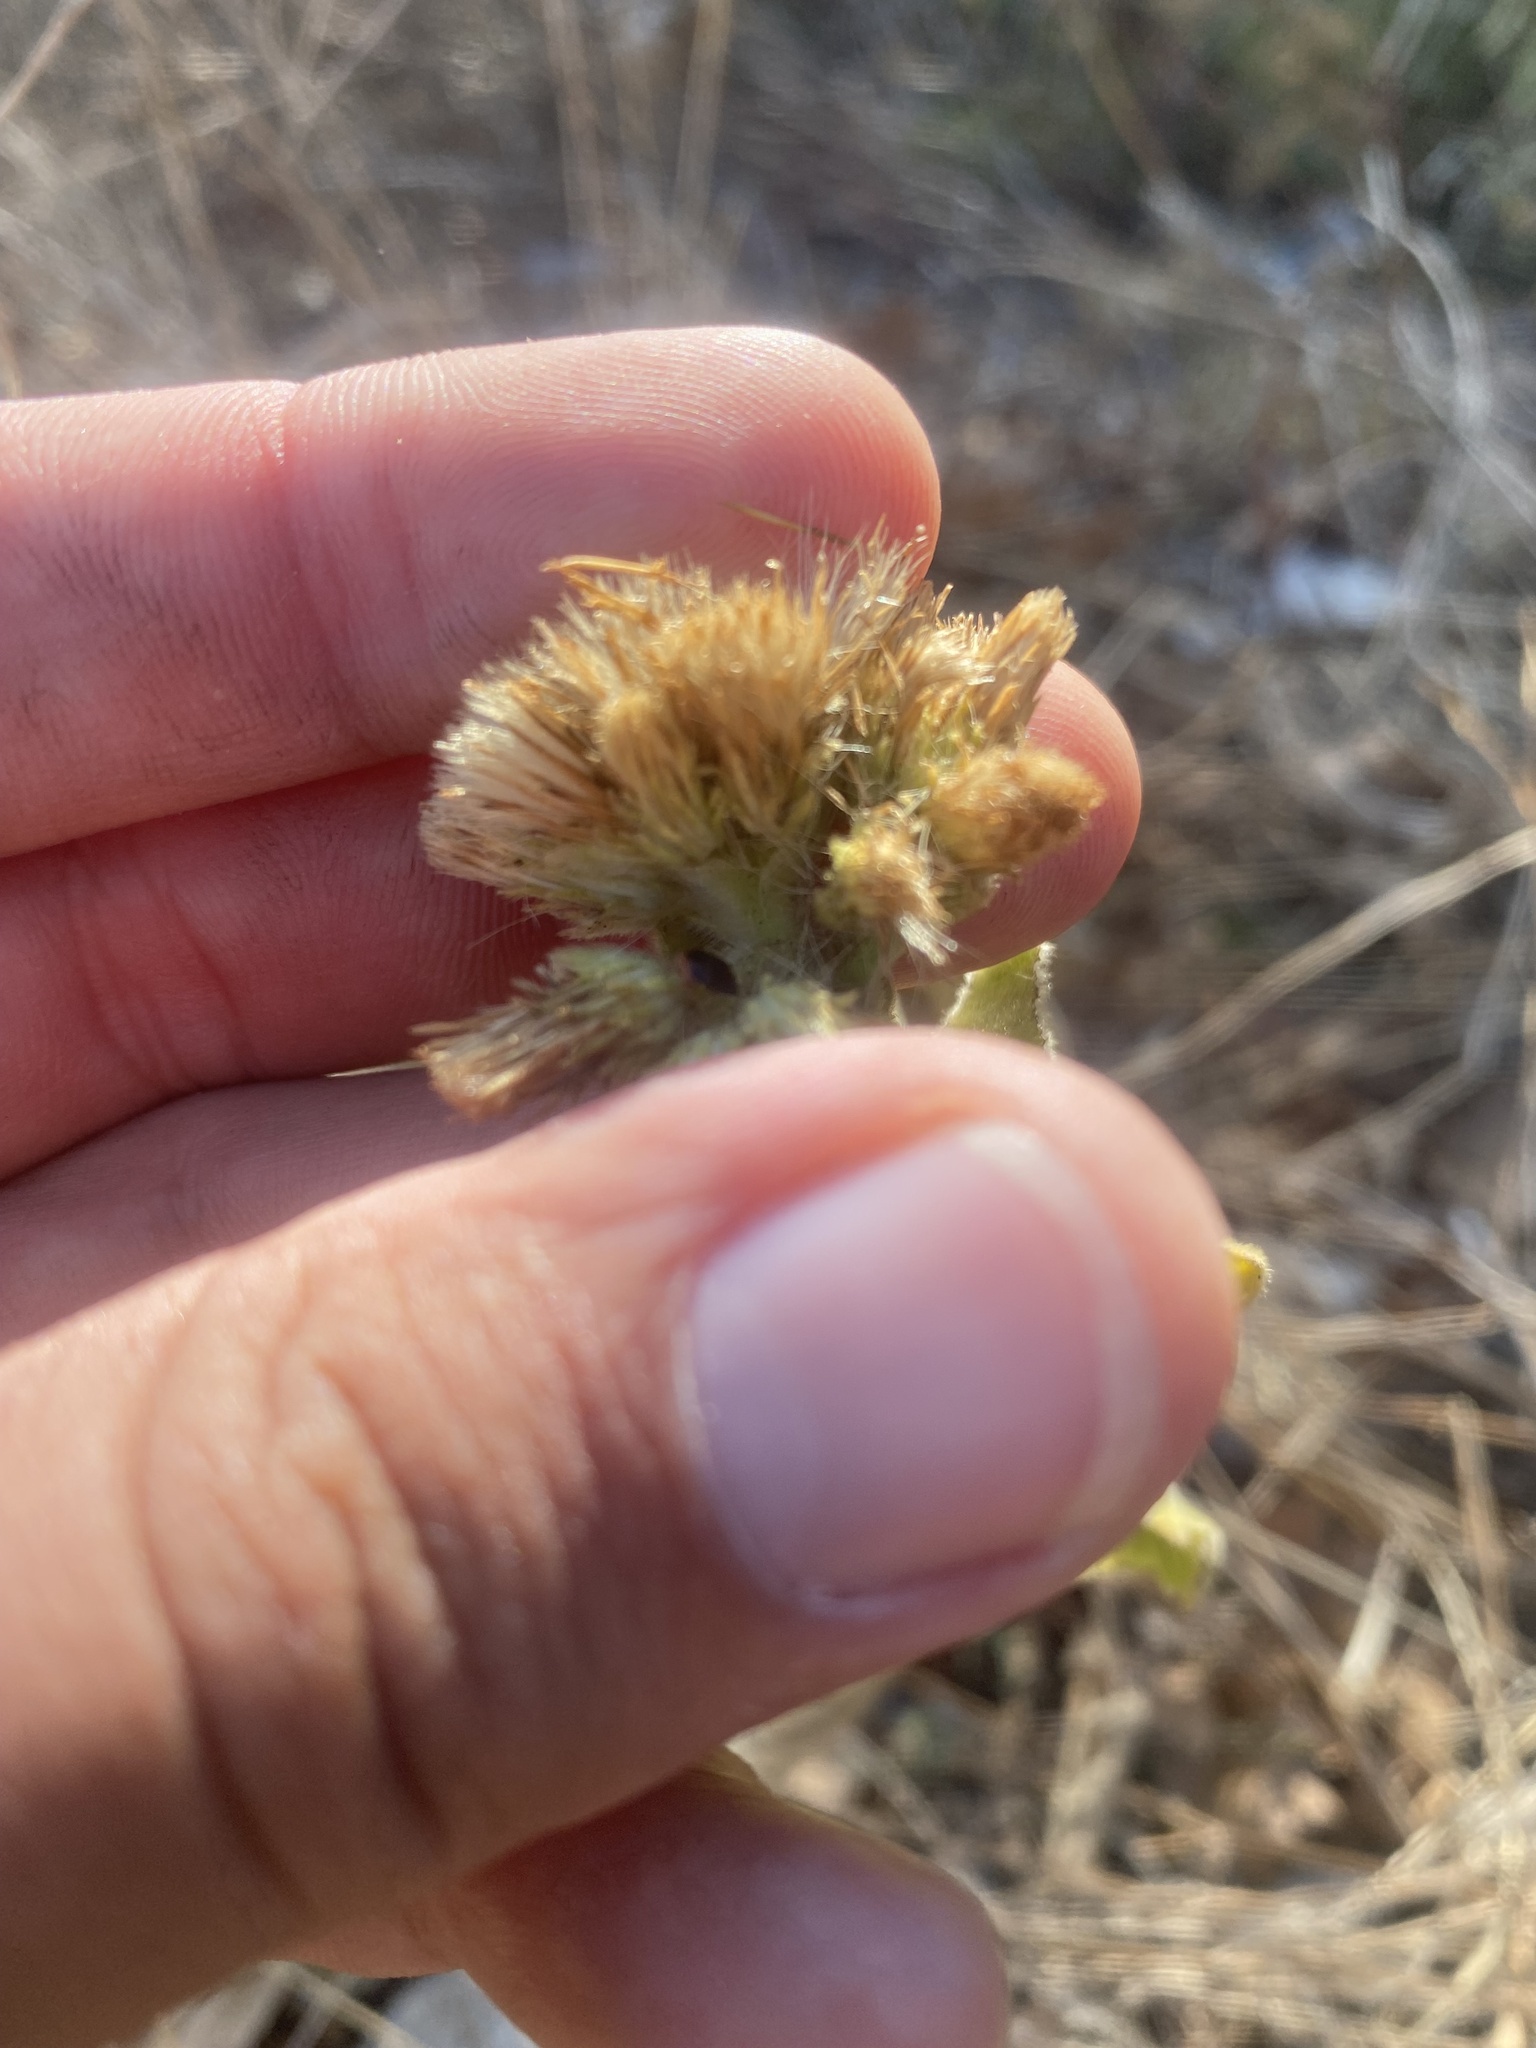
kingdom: Plantae
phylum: Tracheophyta
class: Magnoliopsida
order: Asterales
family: Asteraceae
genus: Inula
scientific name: Inula thapsoides
